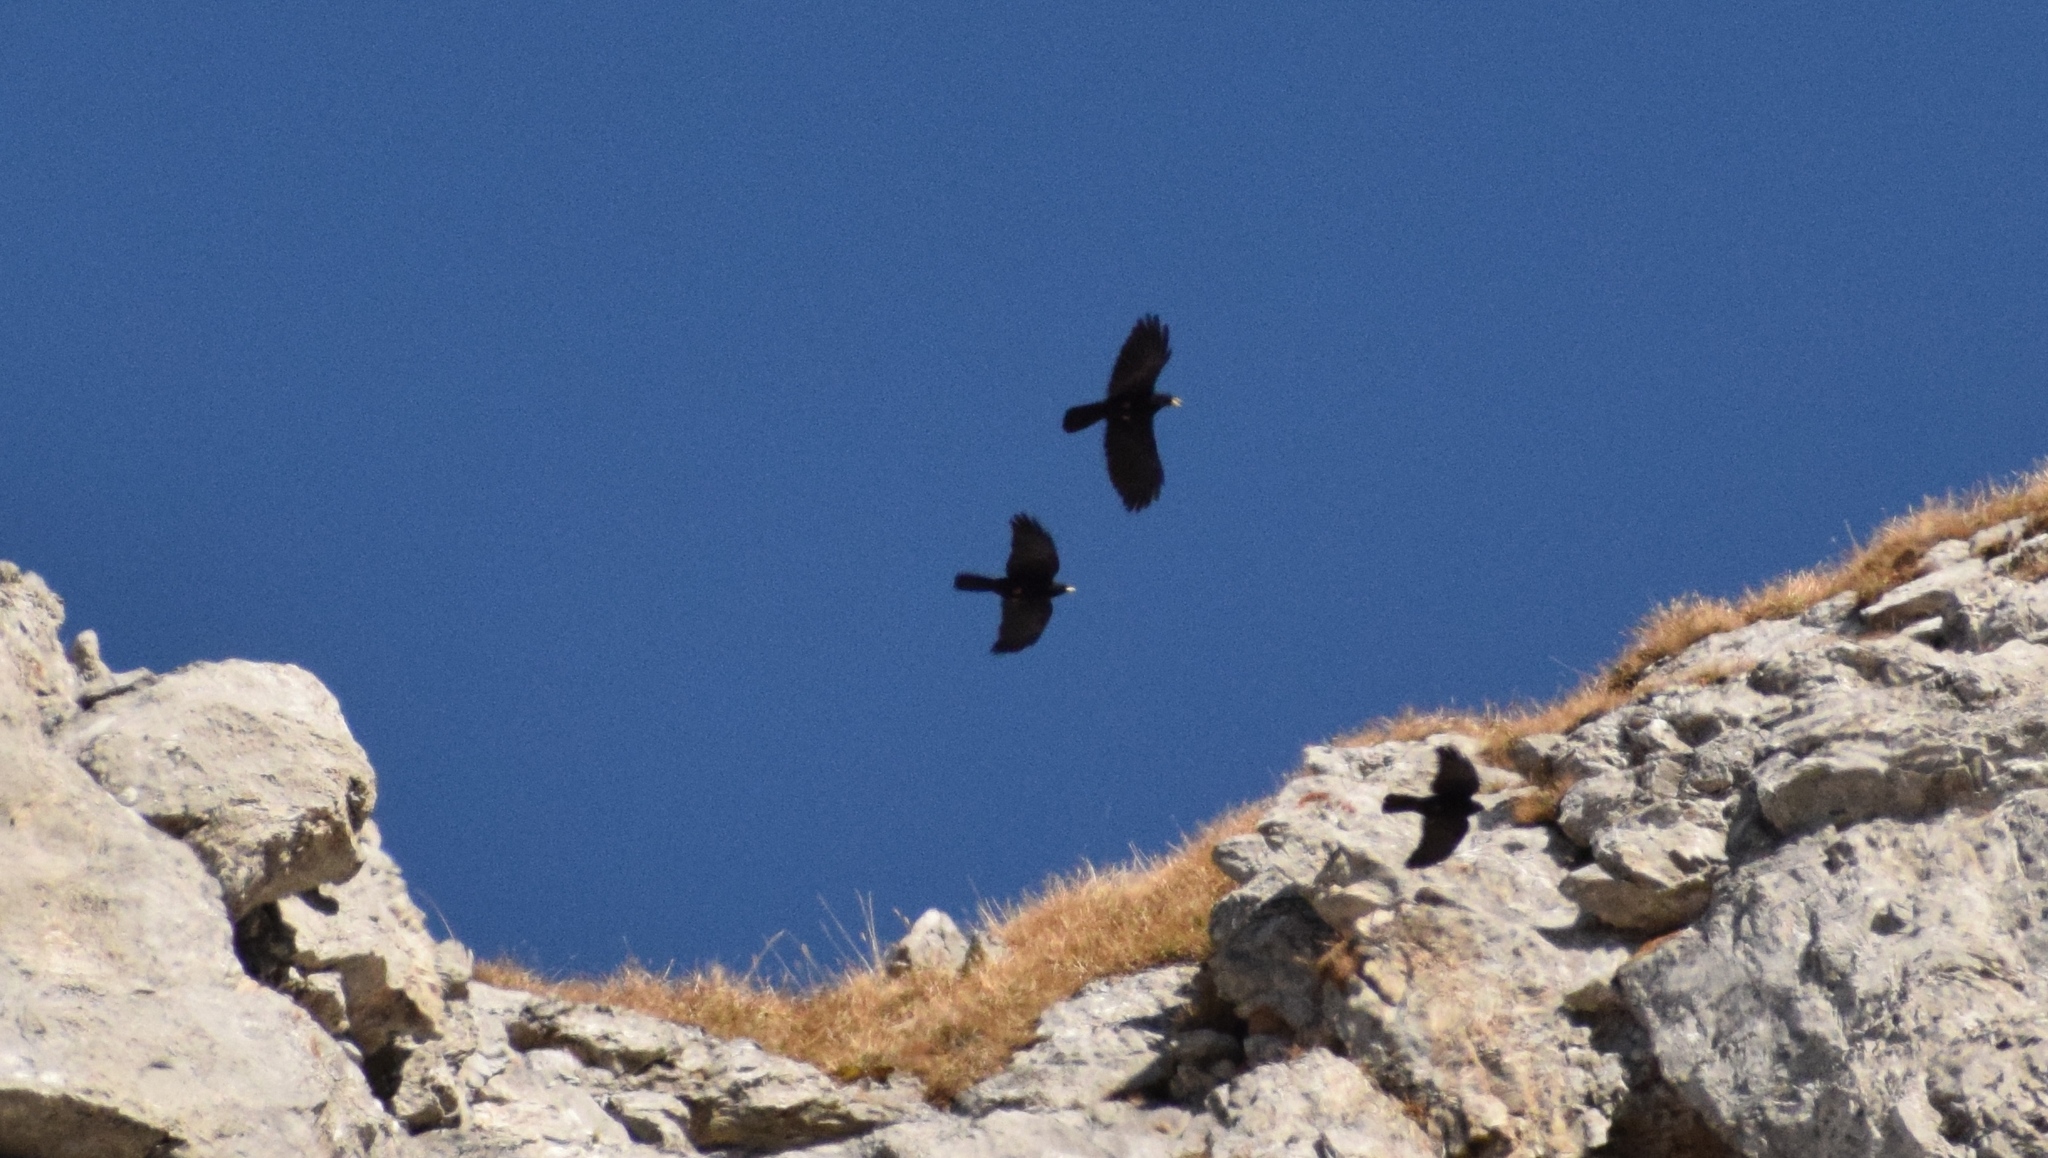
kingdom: Animalia
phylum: Chordata
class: Aves
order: Passeriformes
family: Corvidae
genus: Pyrrhocorax
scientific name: Pyrrhocorax graculus
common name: Alpine chough
